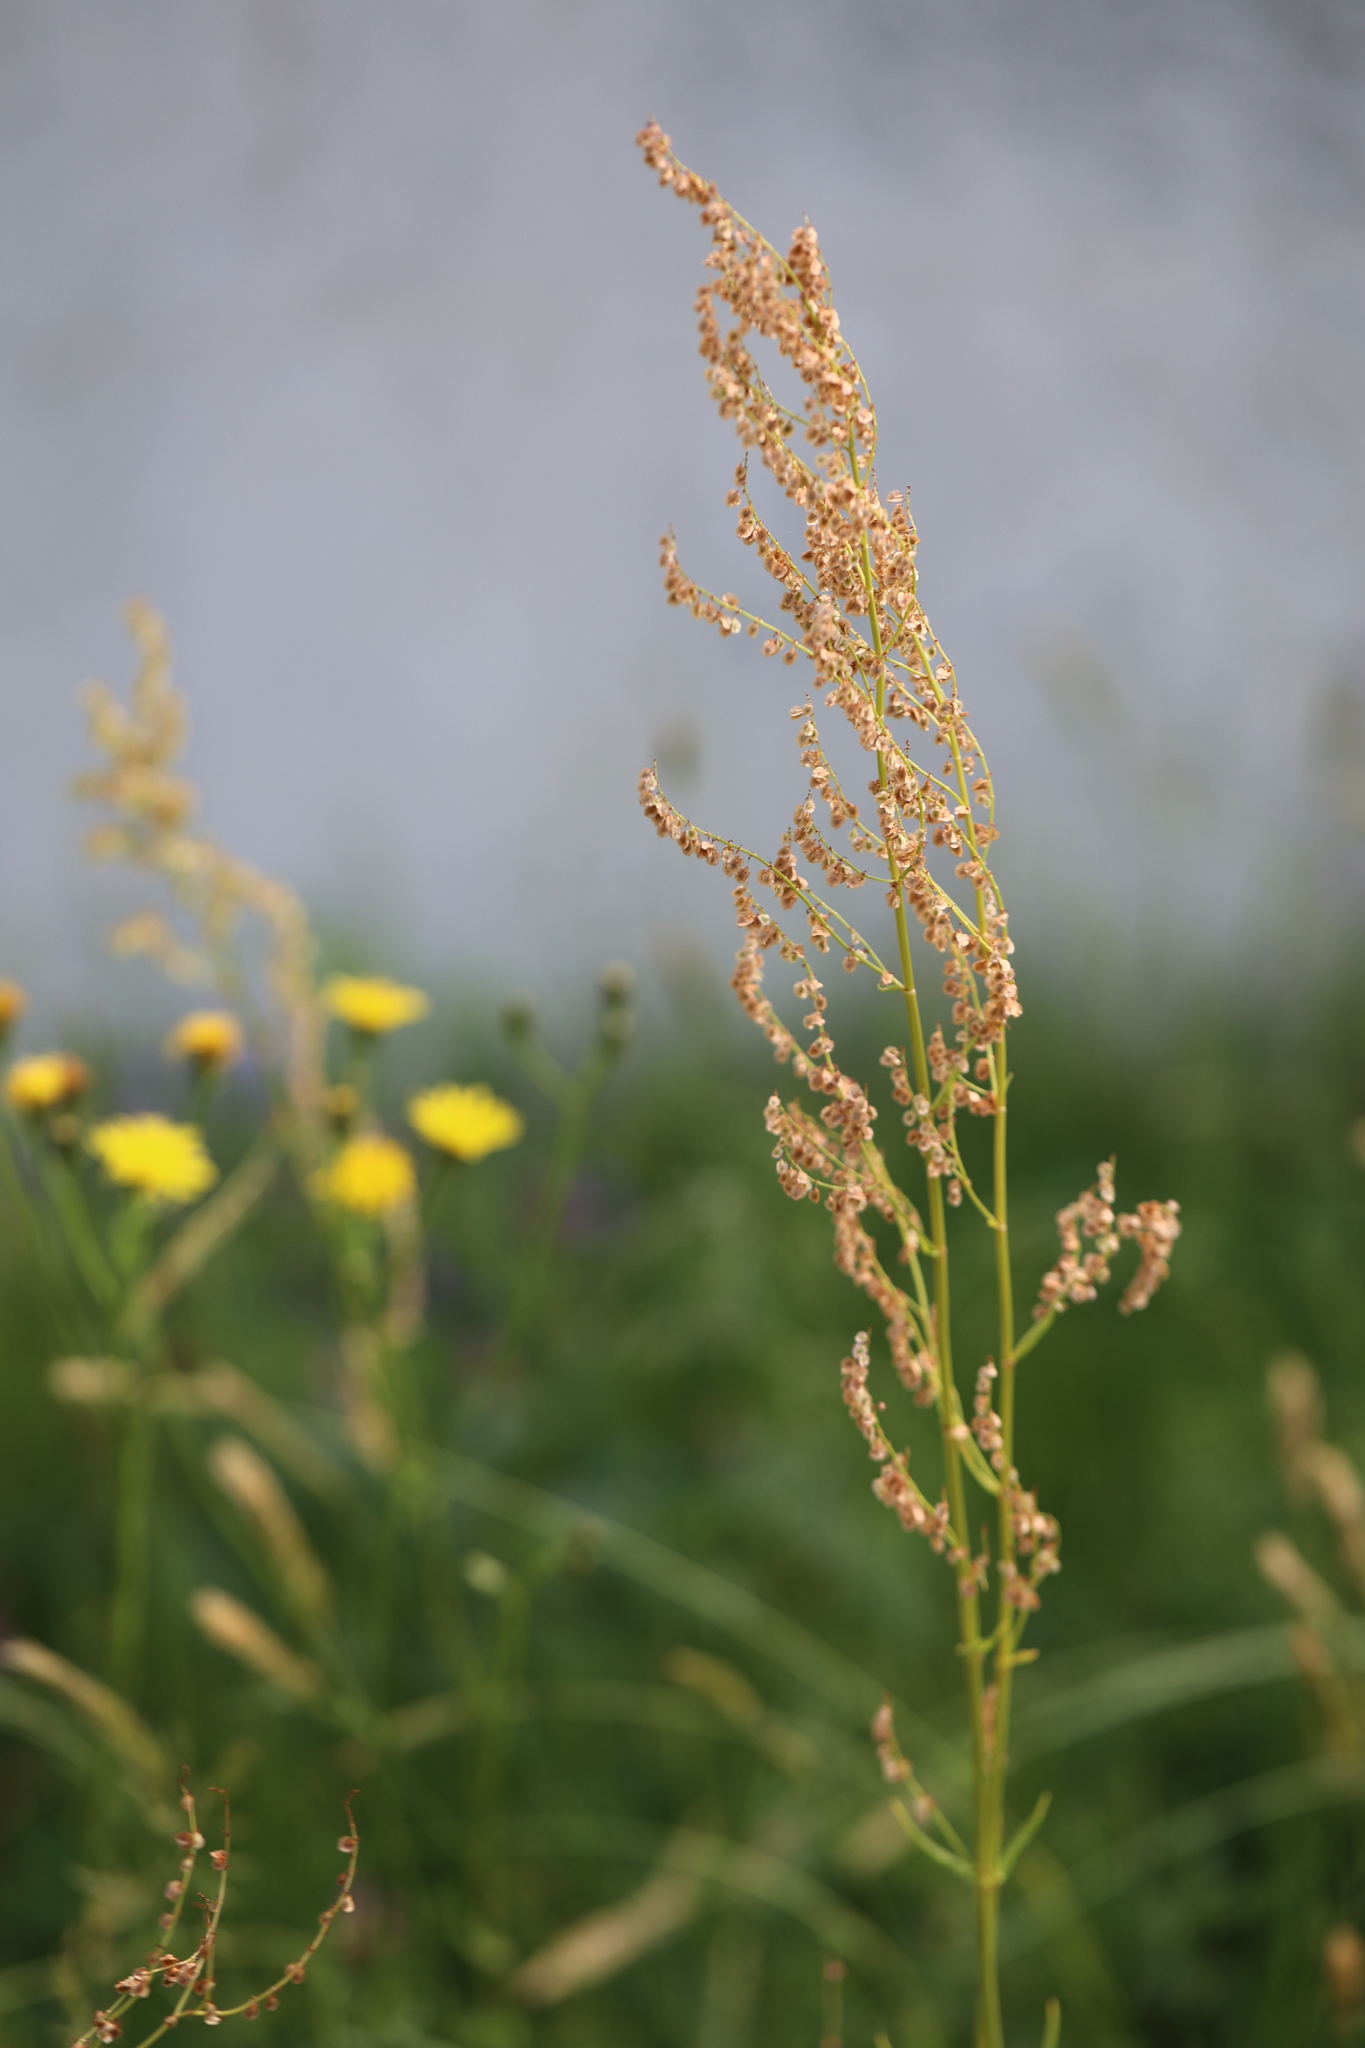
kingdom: Plantae
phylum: Tracheophyta
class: Magnoliopsida
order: Caryophyllales
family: Polygonaceae
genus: Rumex
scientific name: Rumex acetosa
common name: Garden sorrel
